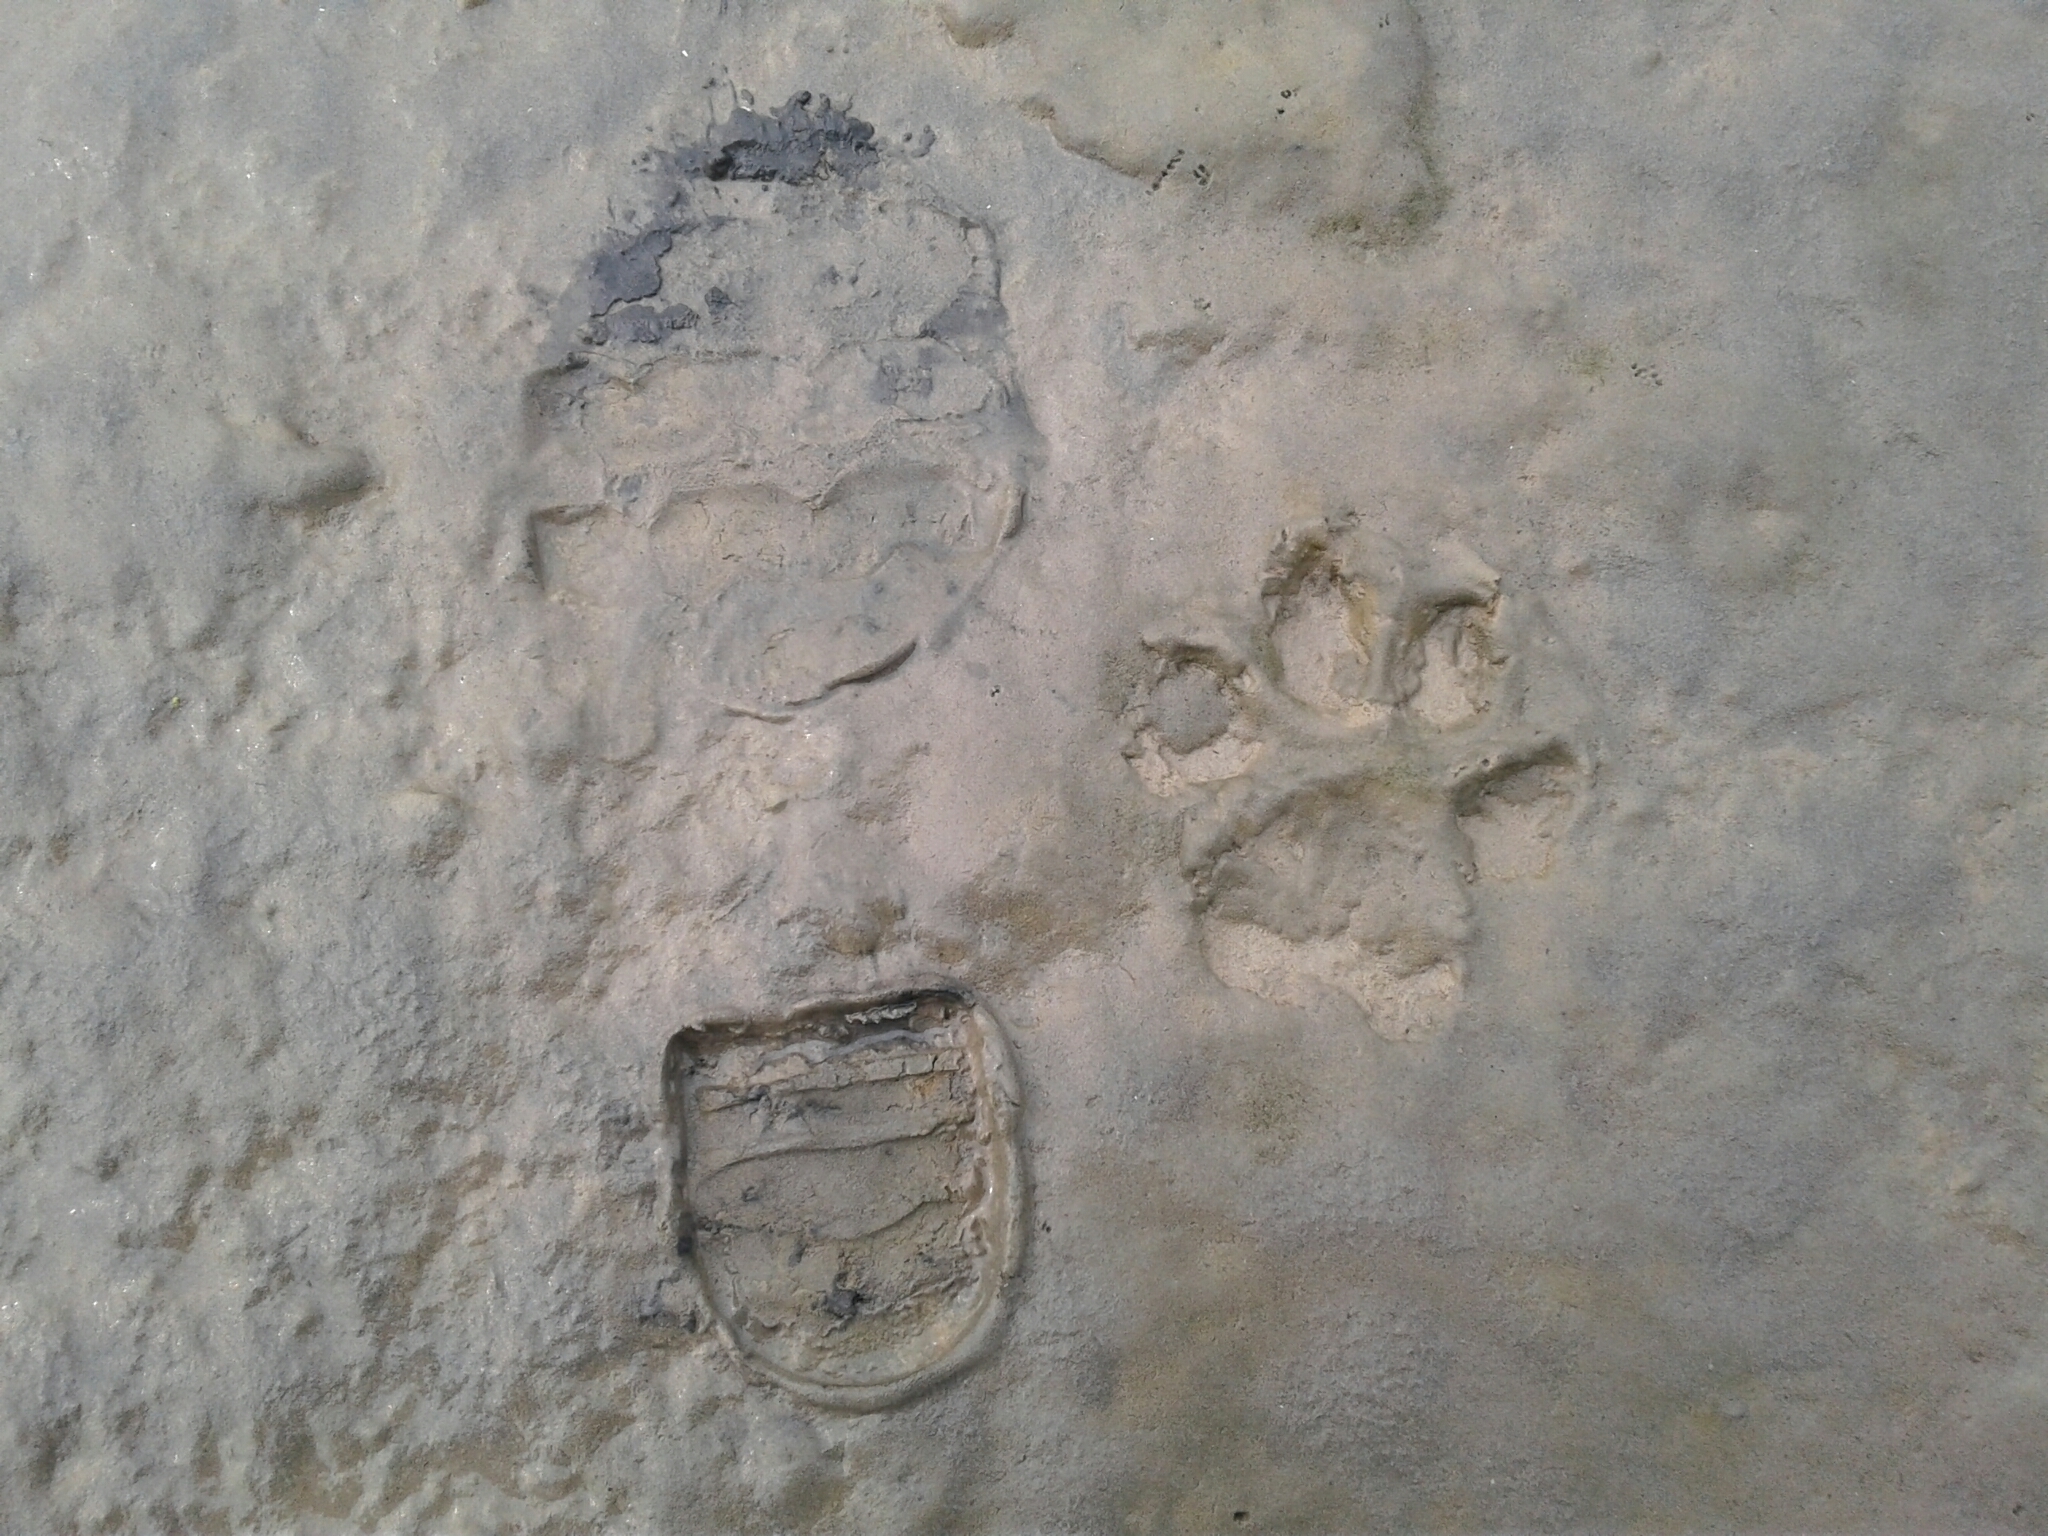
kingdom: Animalia
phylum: Chordata
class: Mammalia
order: Carnivora
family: Canidae
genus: Canis
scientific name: Canis lupus
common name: Gray wolf
